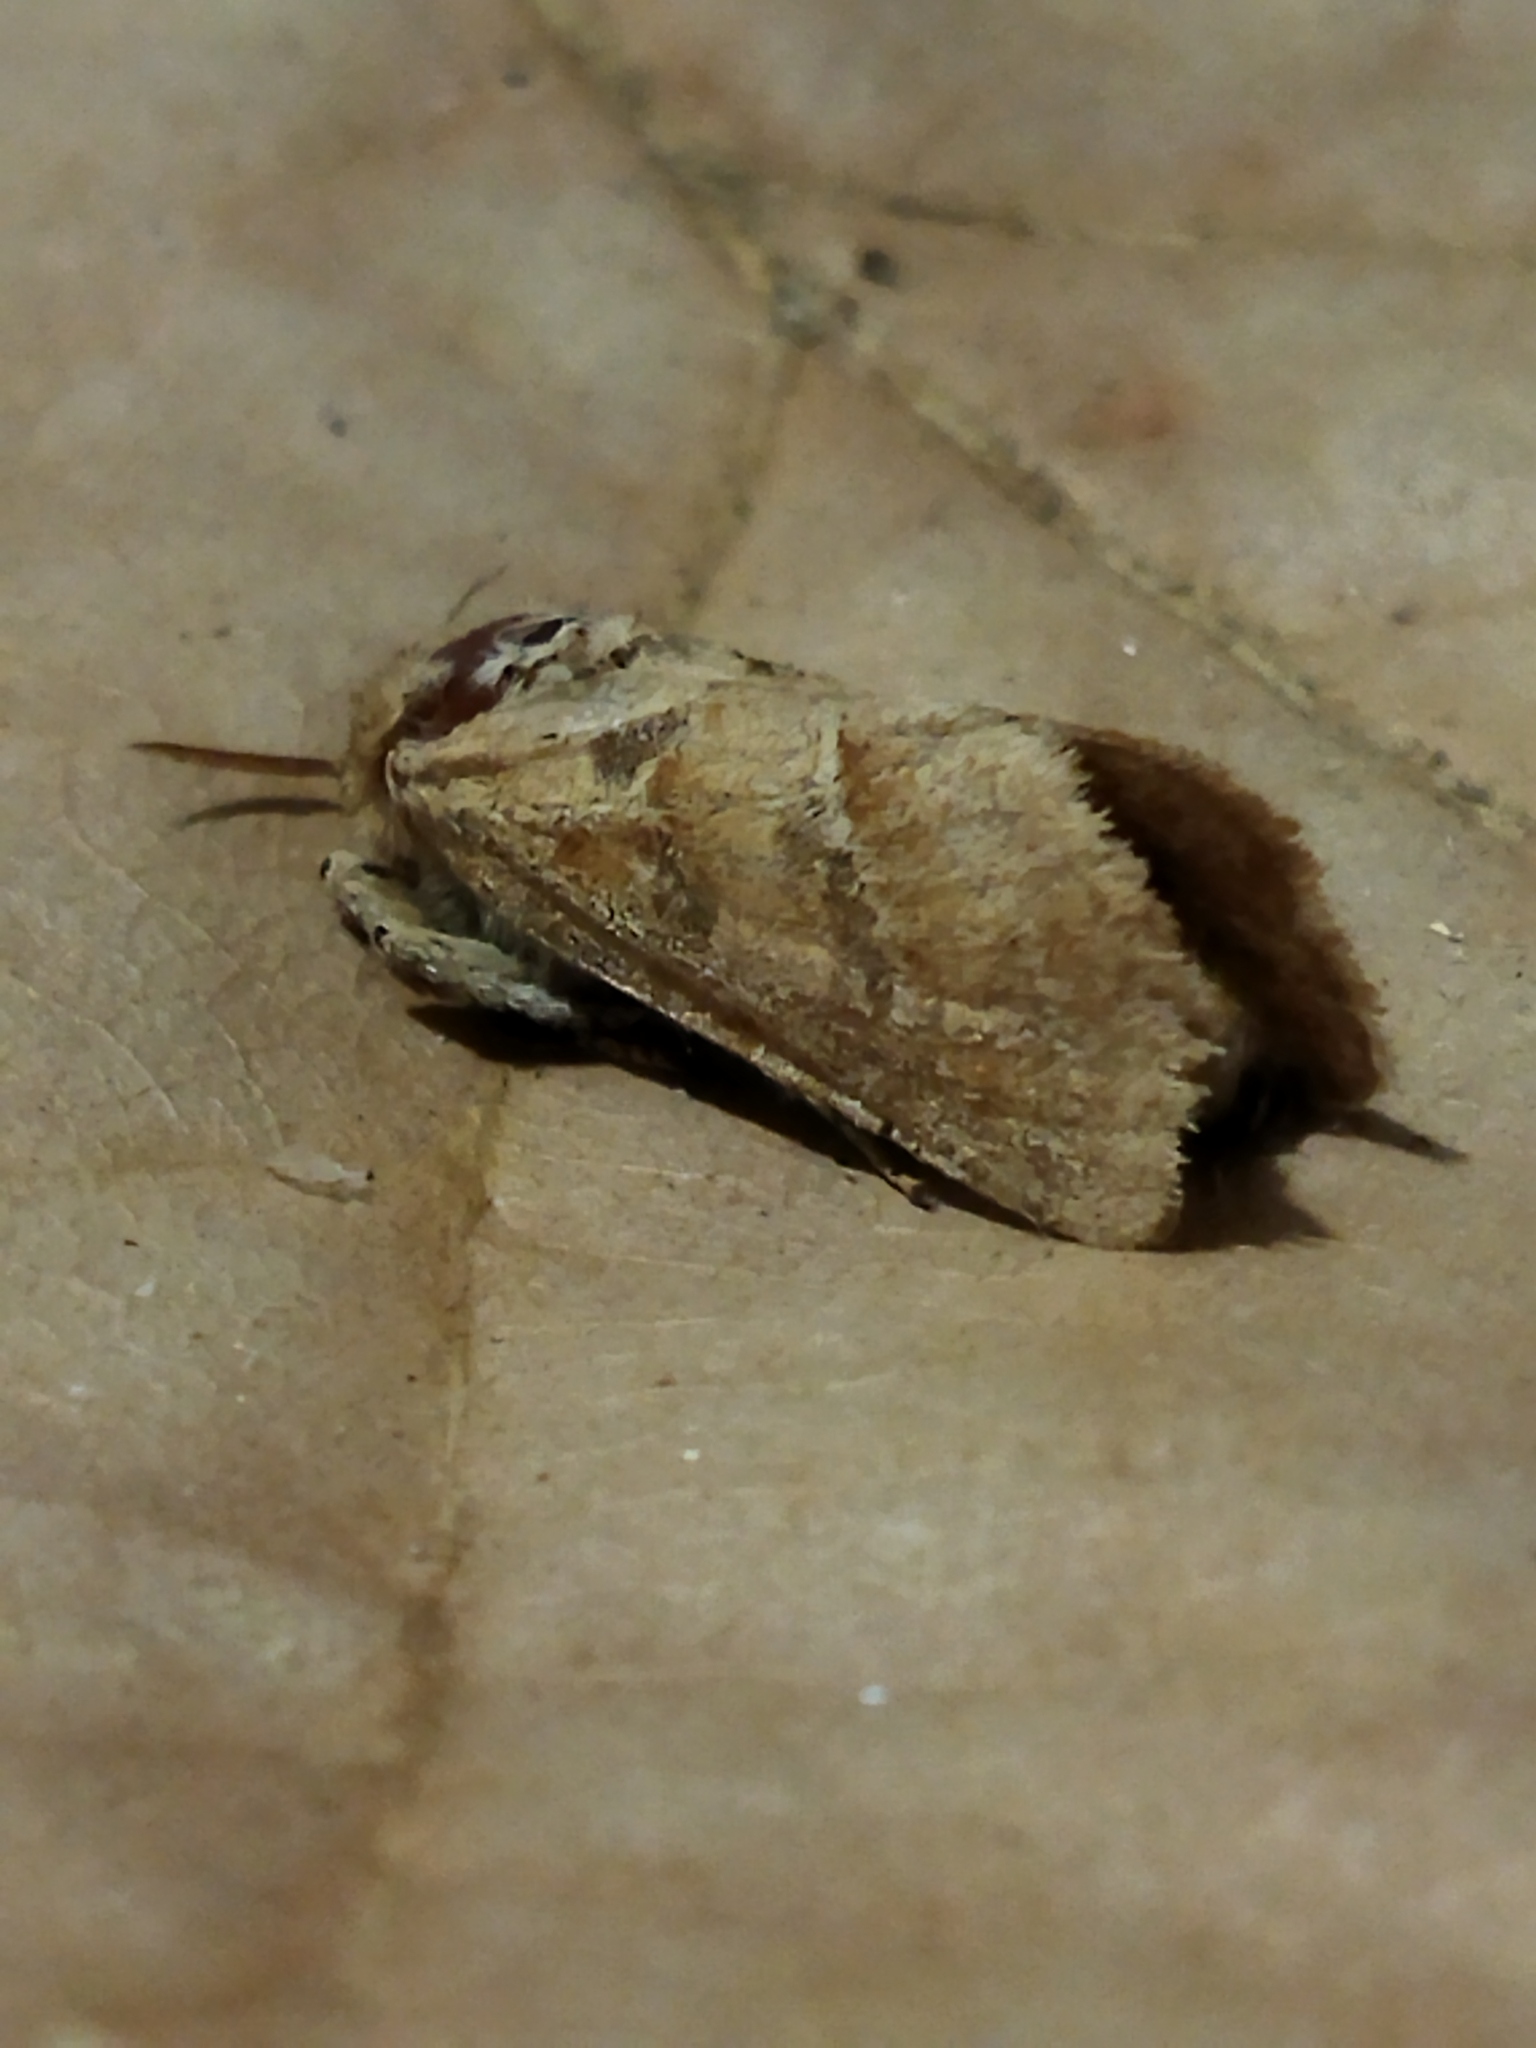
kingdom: Animalia
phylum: Arthropoda
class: Insecta
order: Lepidoptera
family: Hepialidae
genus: Triodia
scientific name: Triodia amasinus
